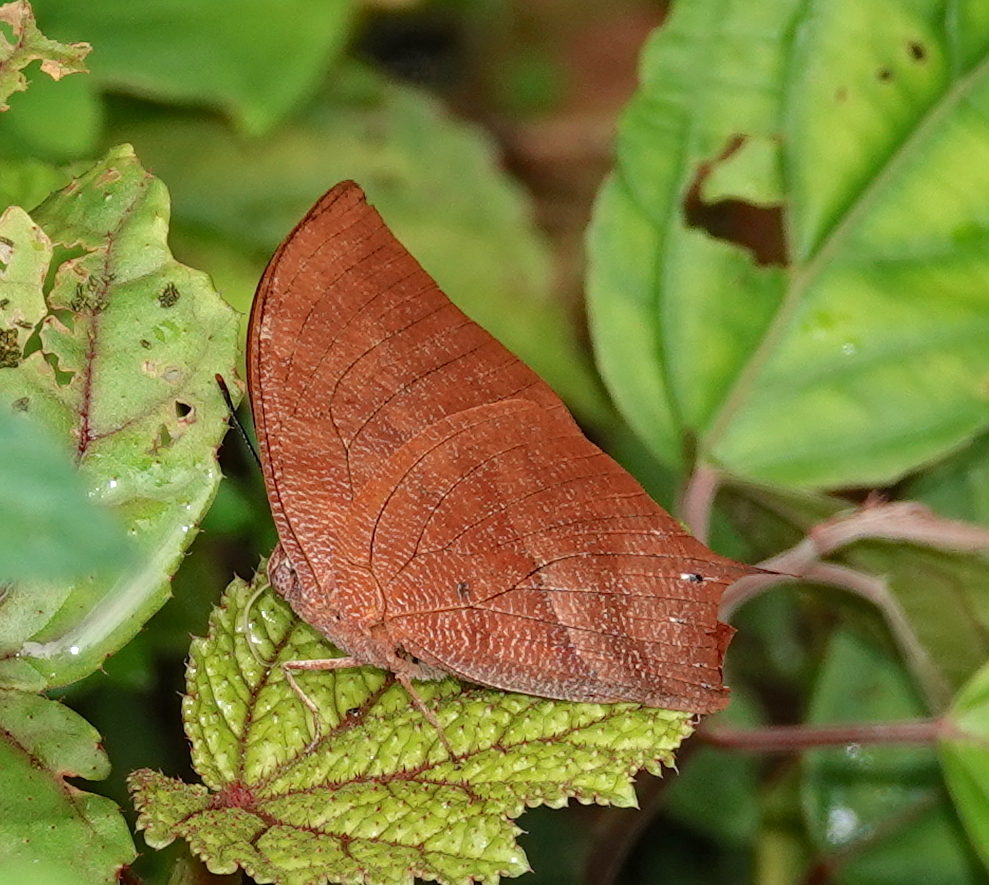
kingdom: Animalia
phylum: Arthropoda
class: Insecta
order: Lepidoptera
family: Nymphalidae
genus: Fountainea
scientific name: Fountainea
